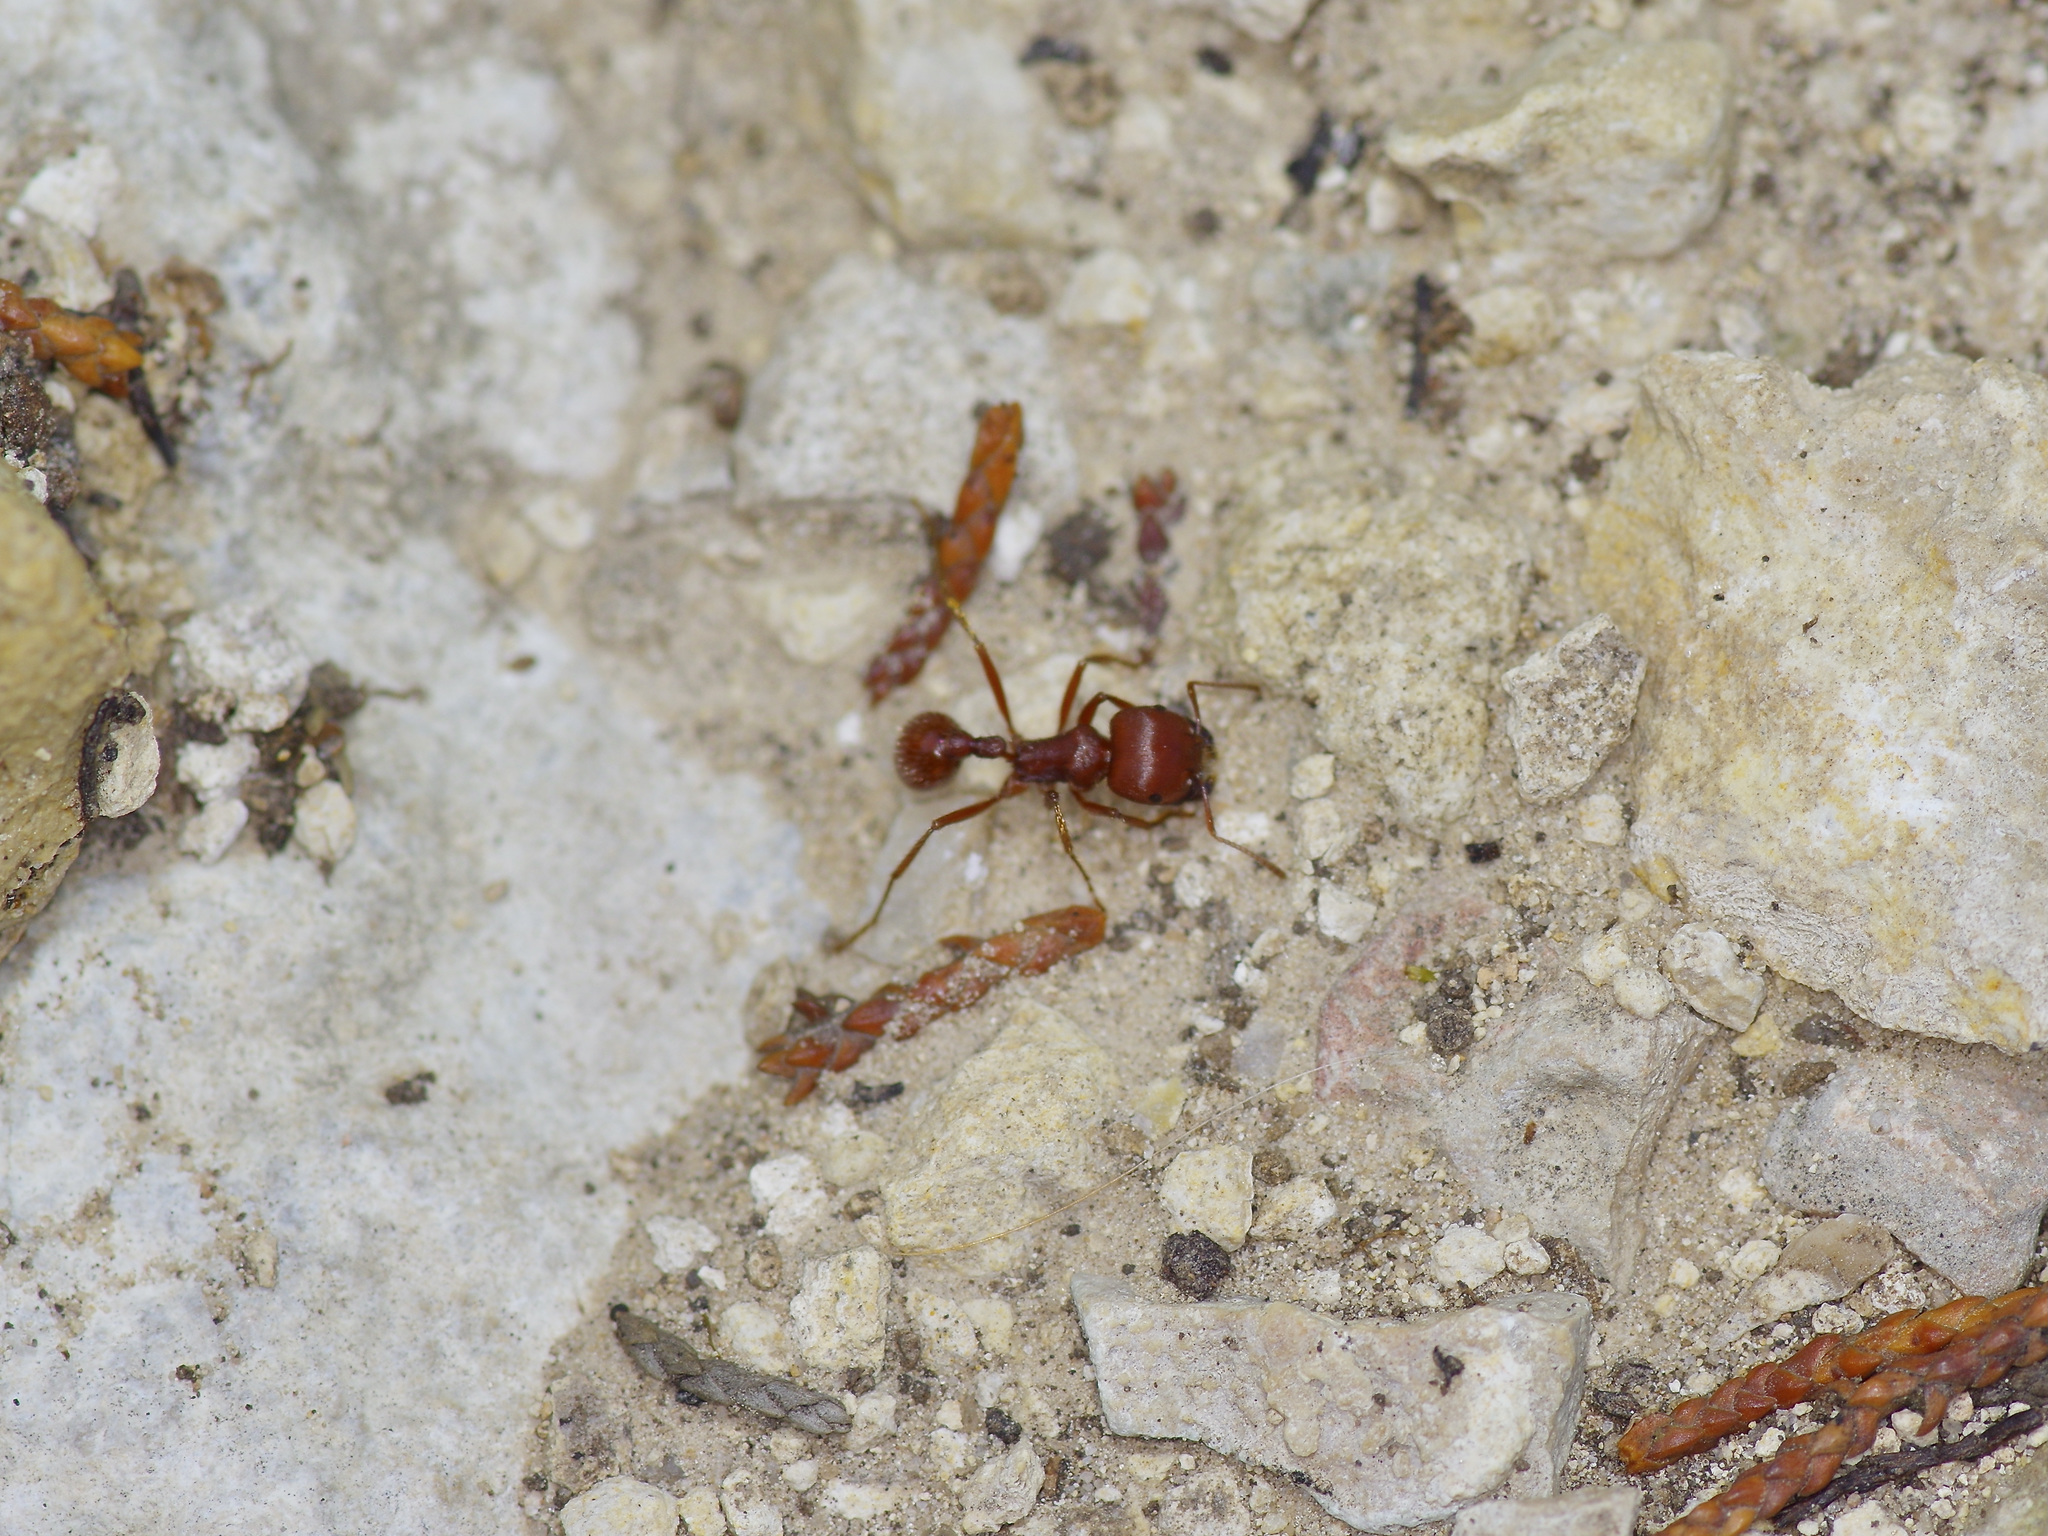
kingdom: Animalia
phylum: Arthropoda
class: Insecta
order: Hymenoptera
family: Formicidae
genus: Pogonomyrmex
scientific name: Pogonomyrmex barbatus
